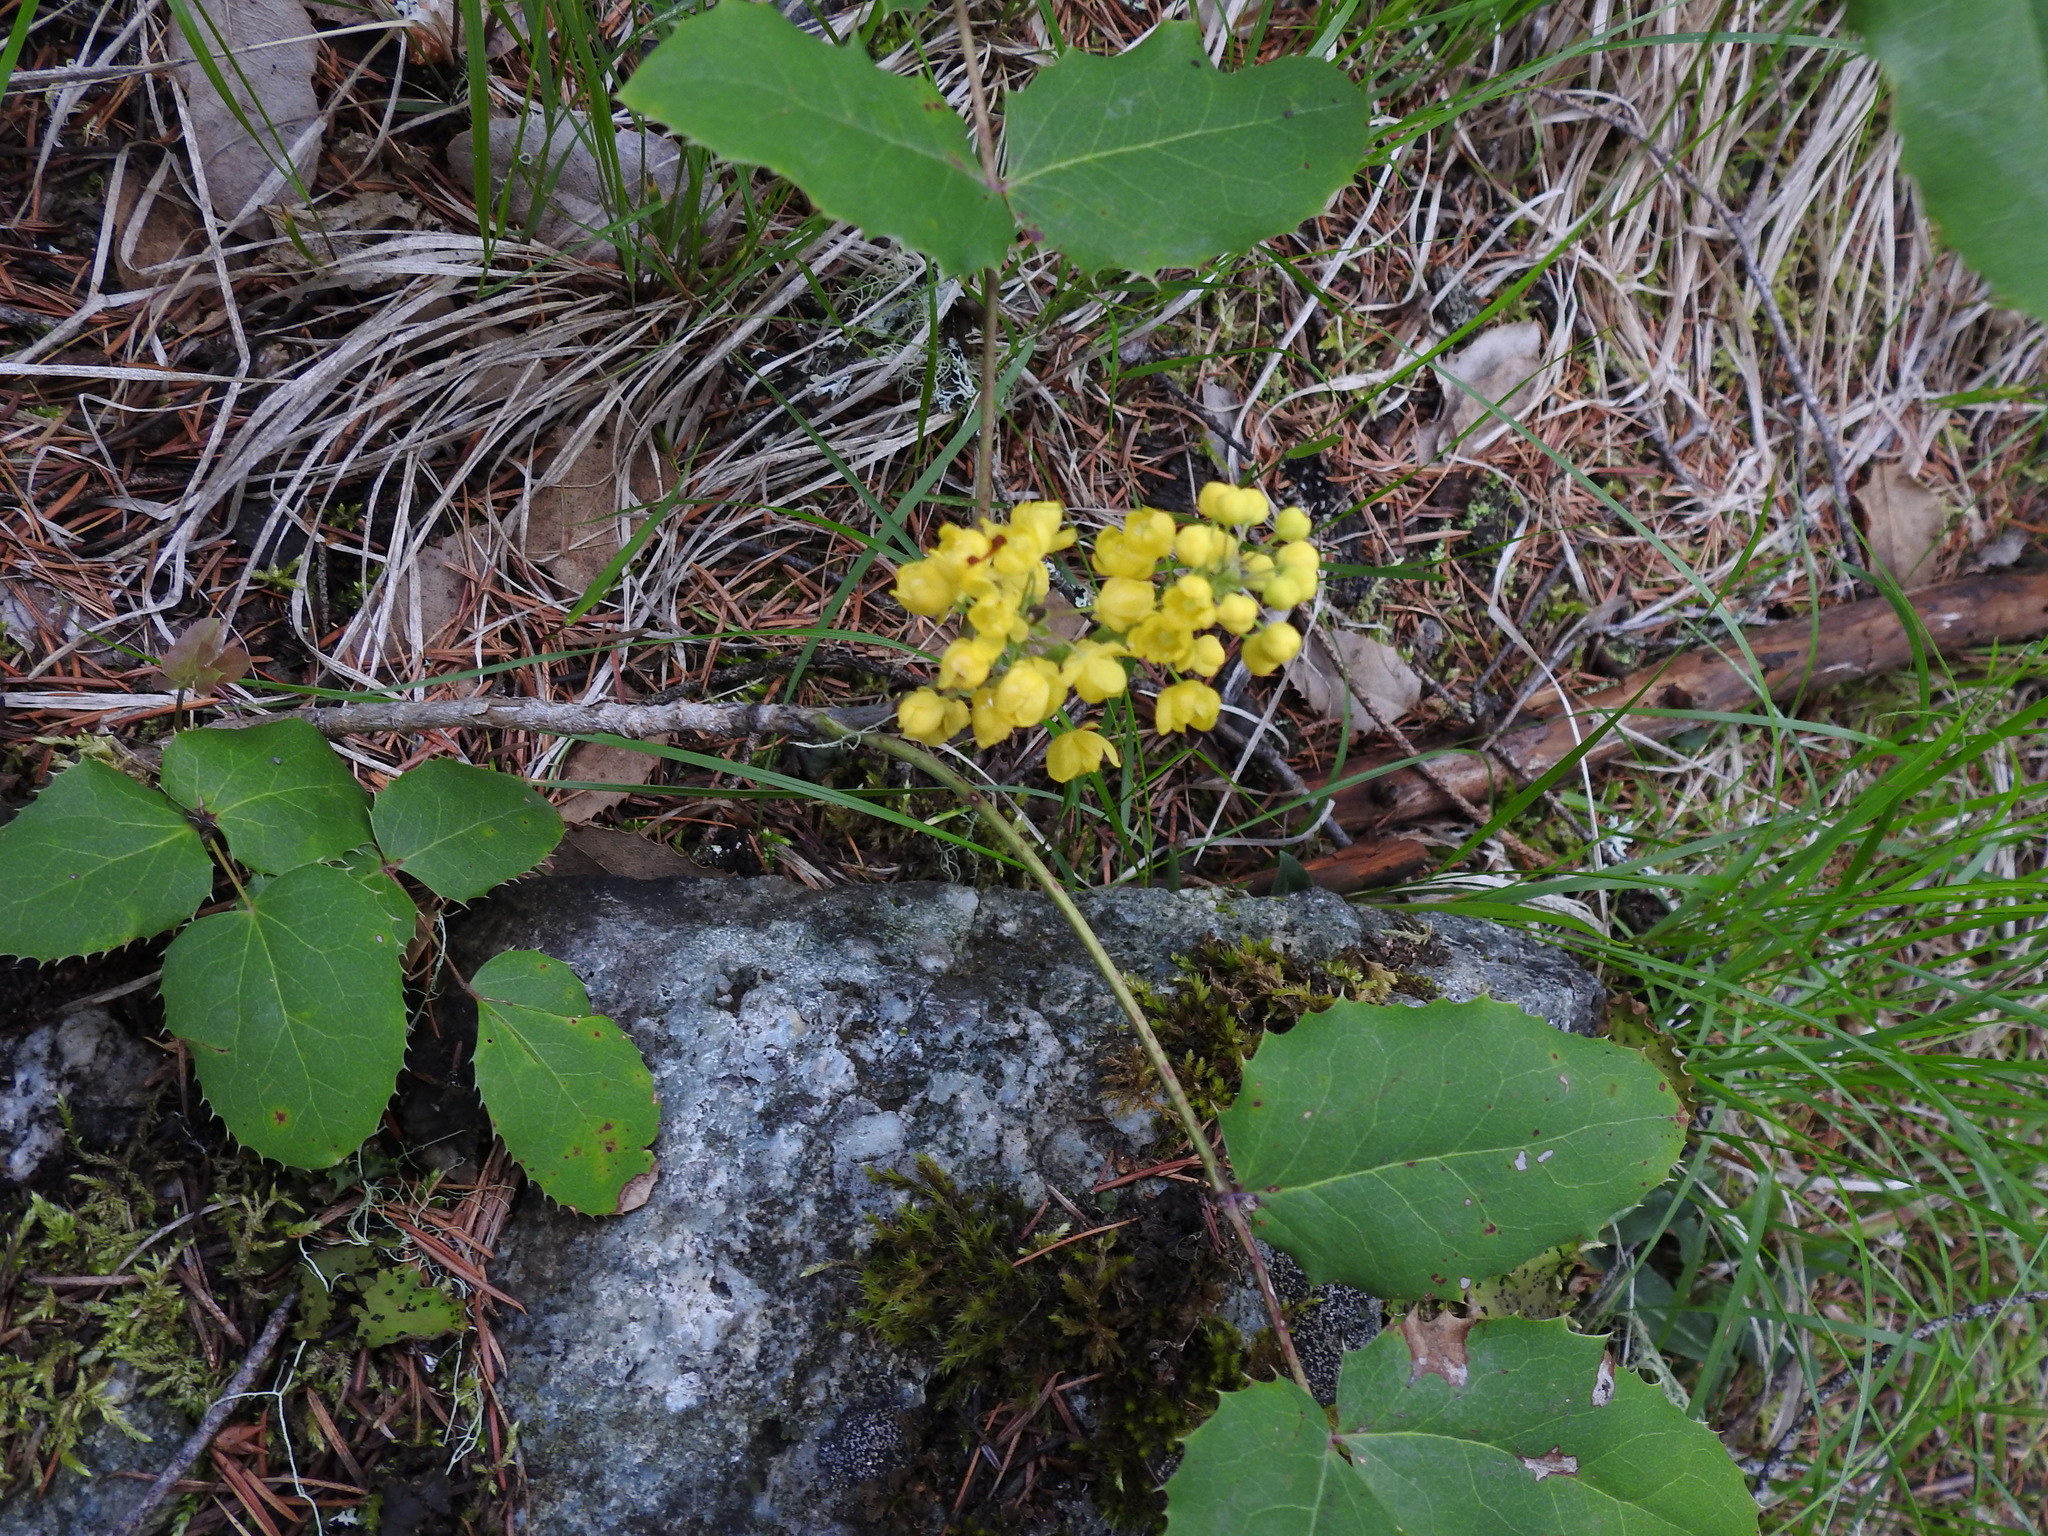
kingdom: Plantae
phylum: Tracheophyta
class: Magnoliopsida
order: Ranunculales
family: Berberidaceae
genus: Mahonia
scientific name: Mahonia repens
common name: Creeping oregon-grape
